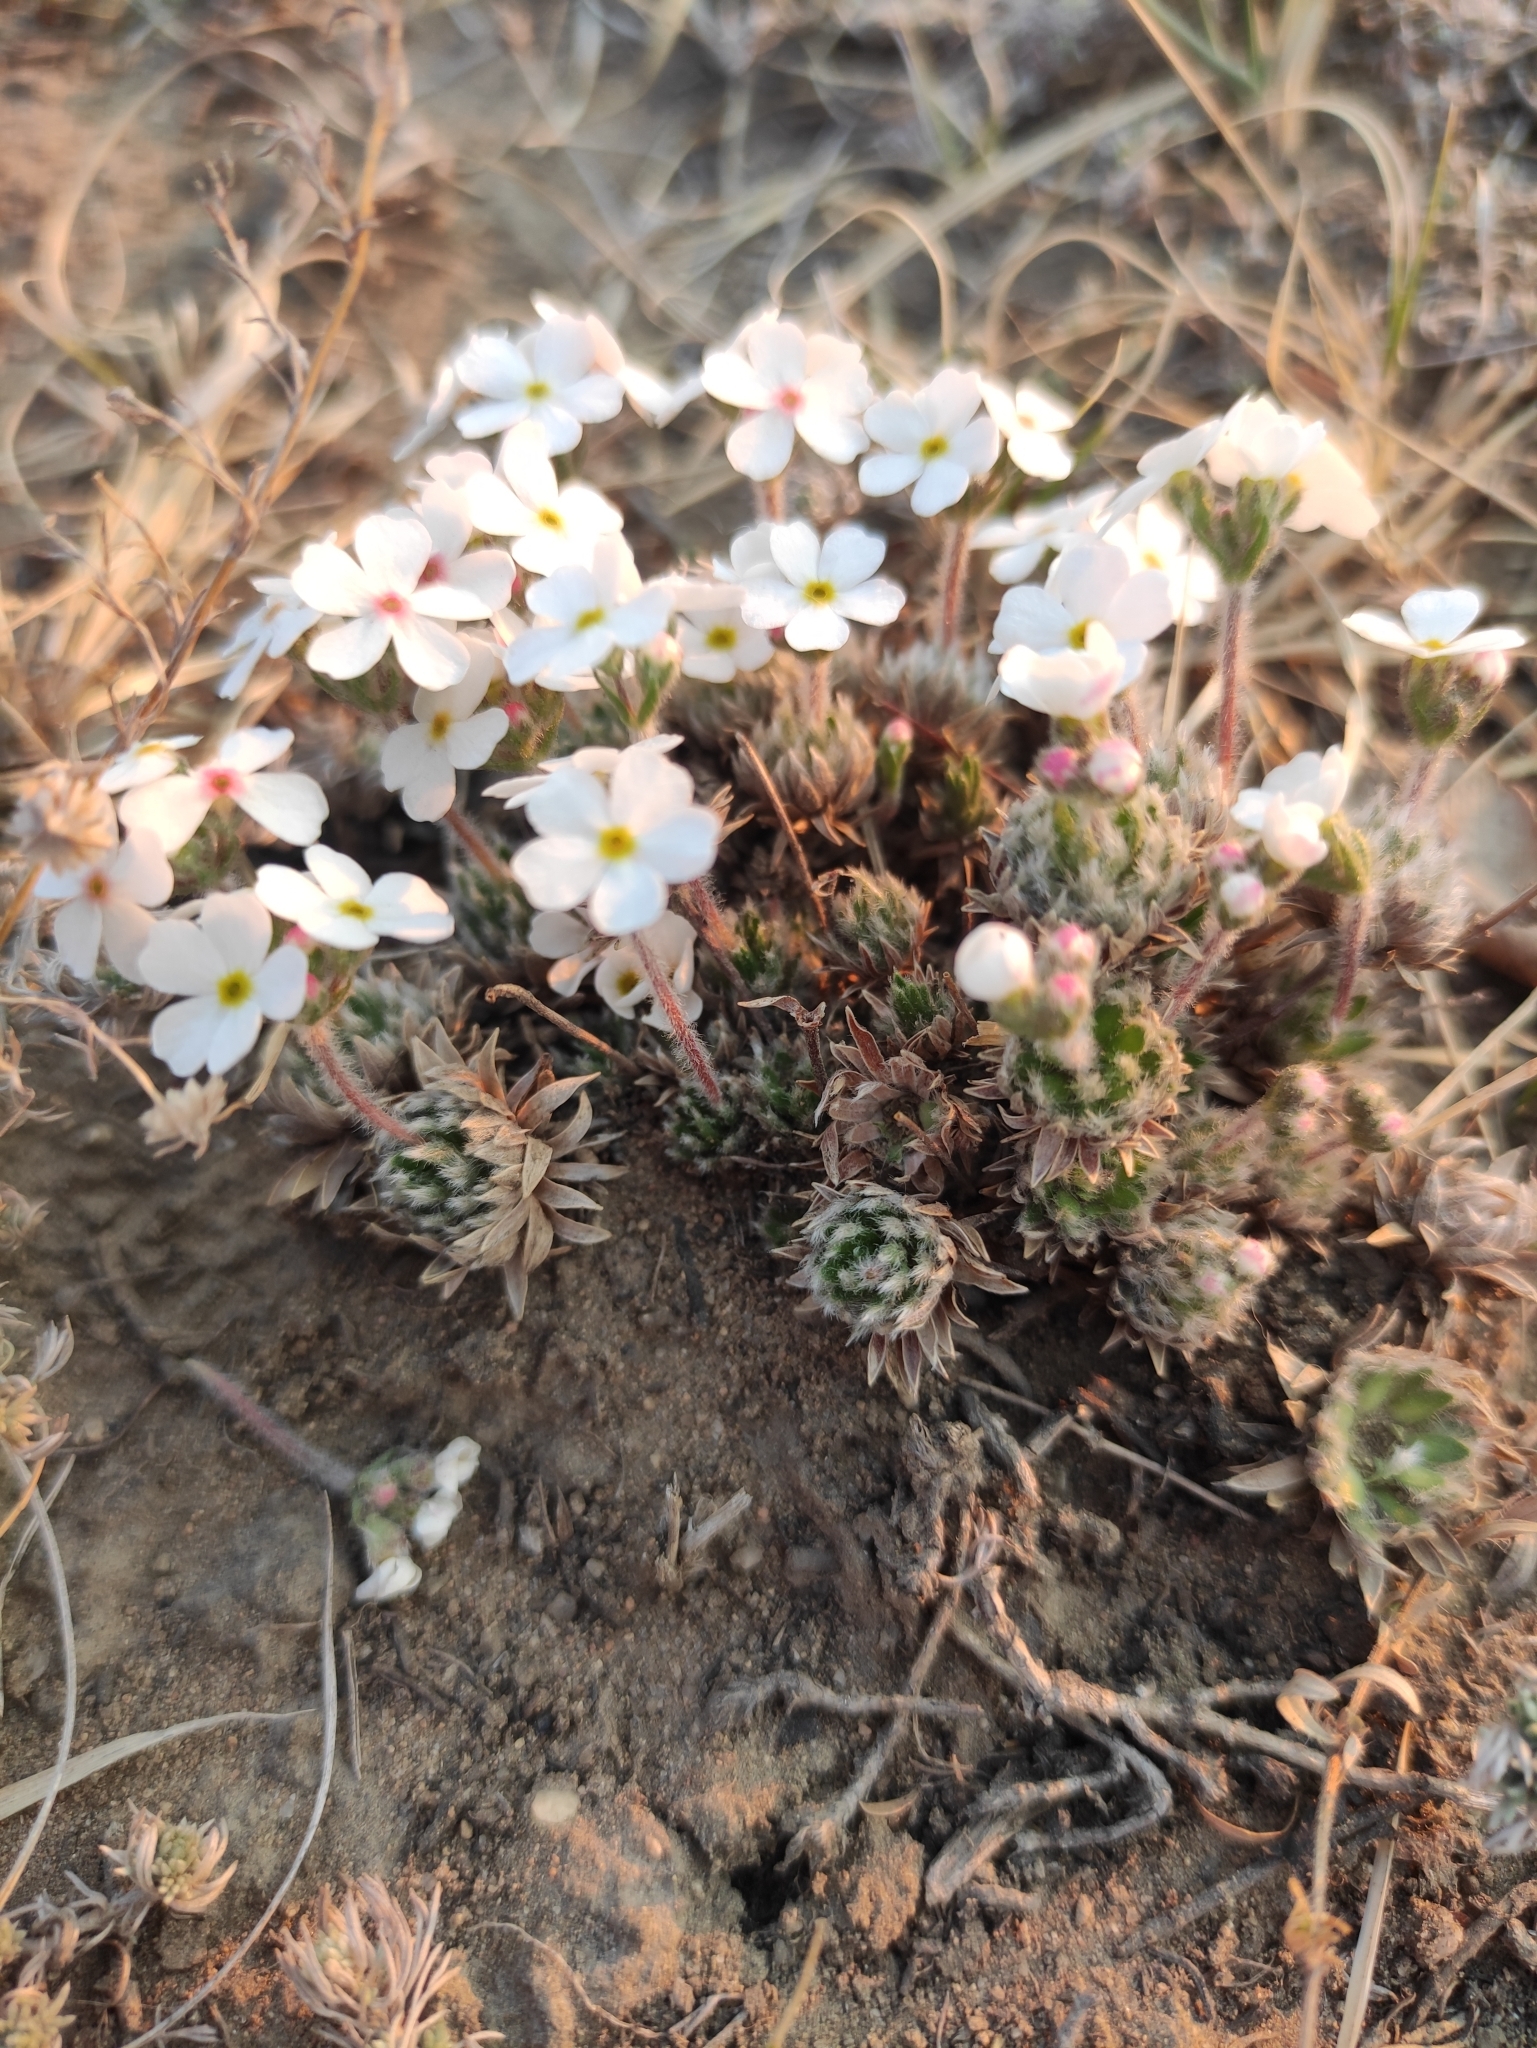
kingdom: Plantae
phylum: Tracheophyta
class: Magnoliopsida
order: Ericales
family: Primulaceae
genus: Androsace
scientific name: Androsace incana
